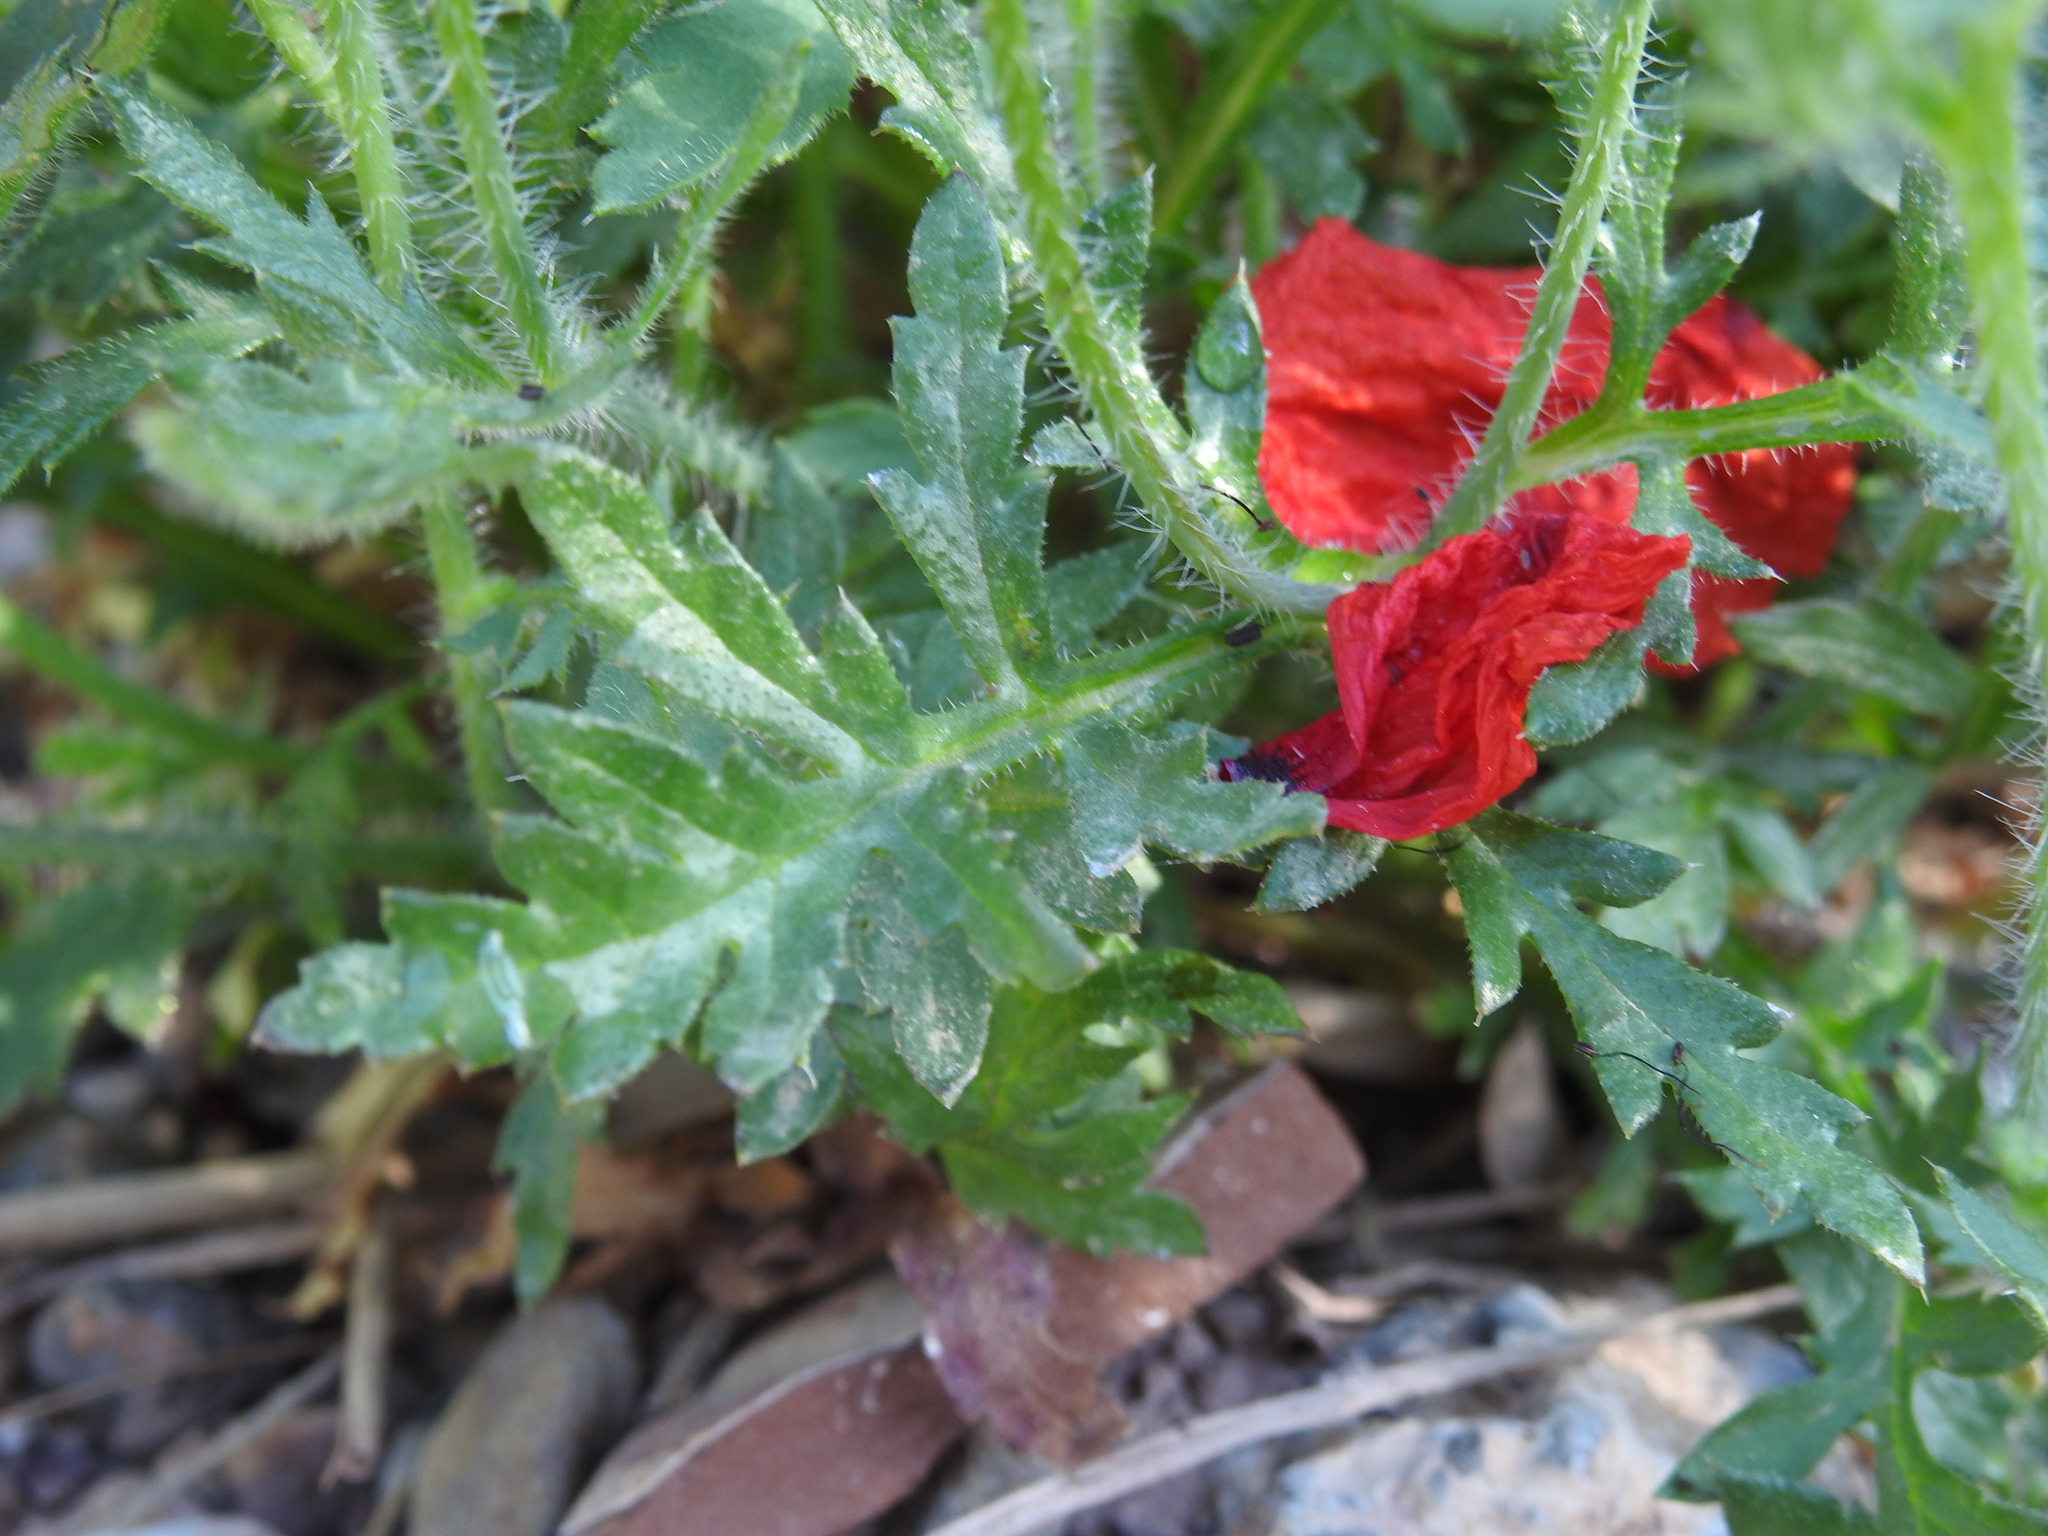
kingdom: Plantae
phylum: Tracheophyta
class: Magnoliopsida
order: Ranunculales
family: Papaveraceae
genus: Papaver
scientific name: Papaver rhoeas
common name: Corn poppy
